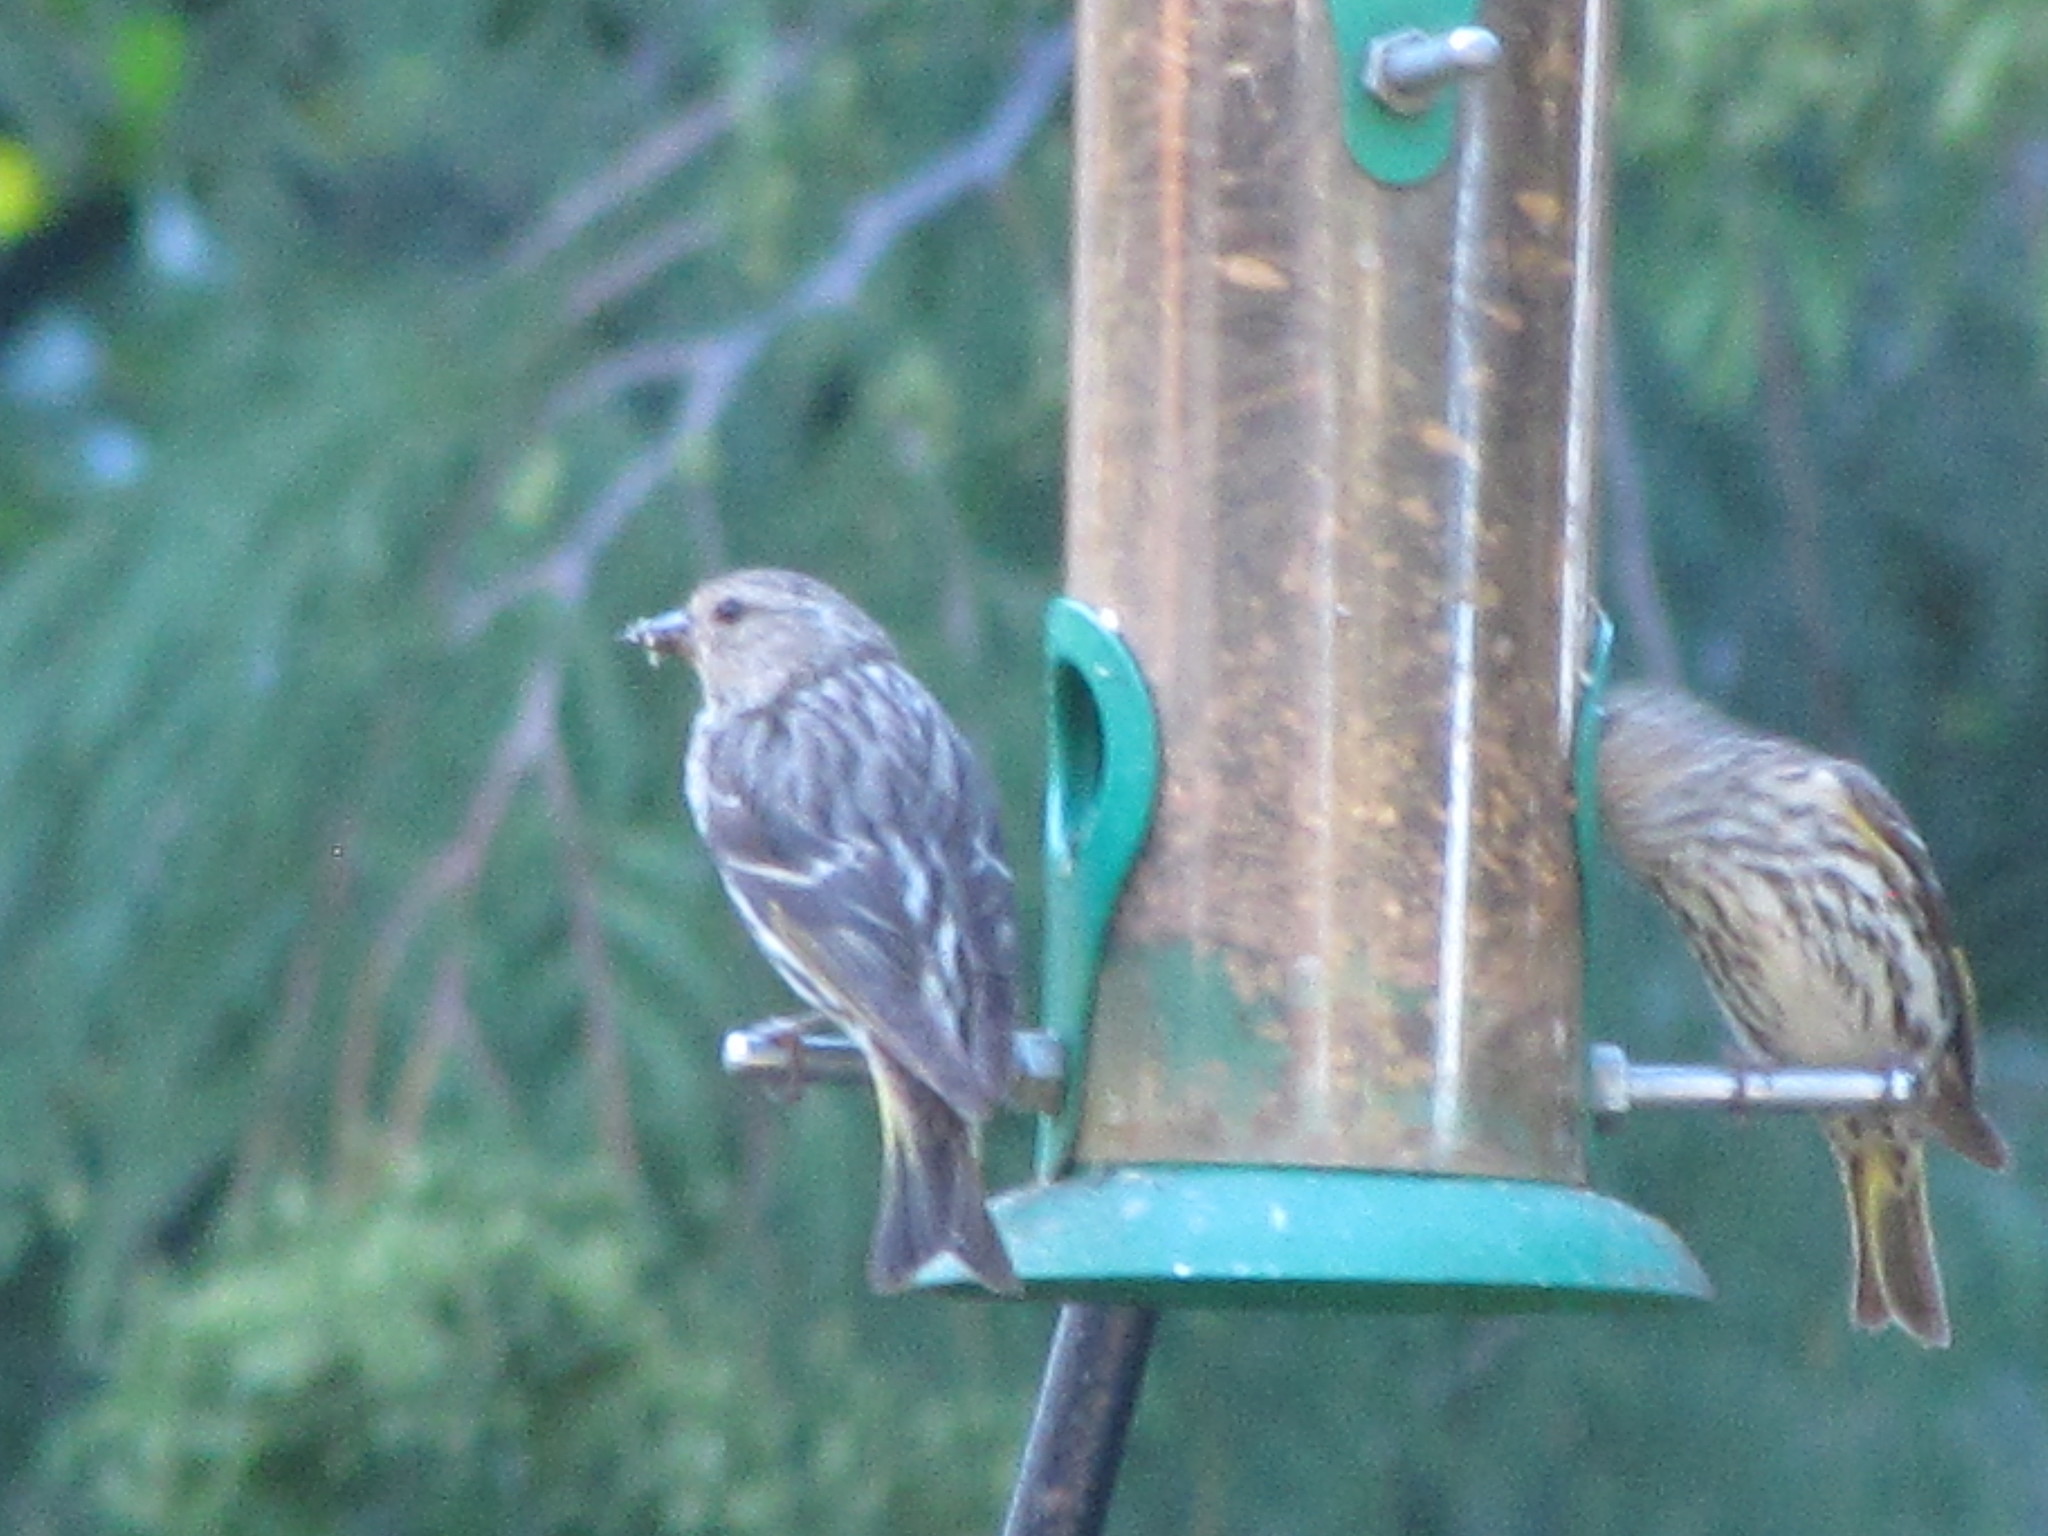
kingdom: Animalia
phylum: Chordata
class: Aves
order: Passeriformes
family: Fringillidae
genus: Spinus
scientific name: Spinus pinus
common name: Pine siskin
